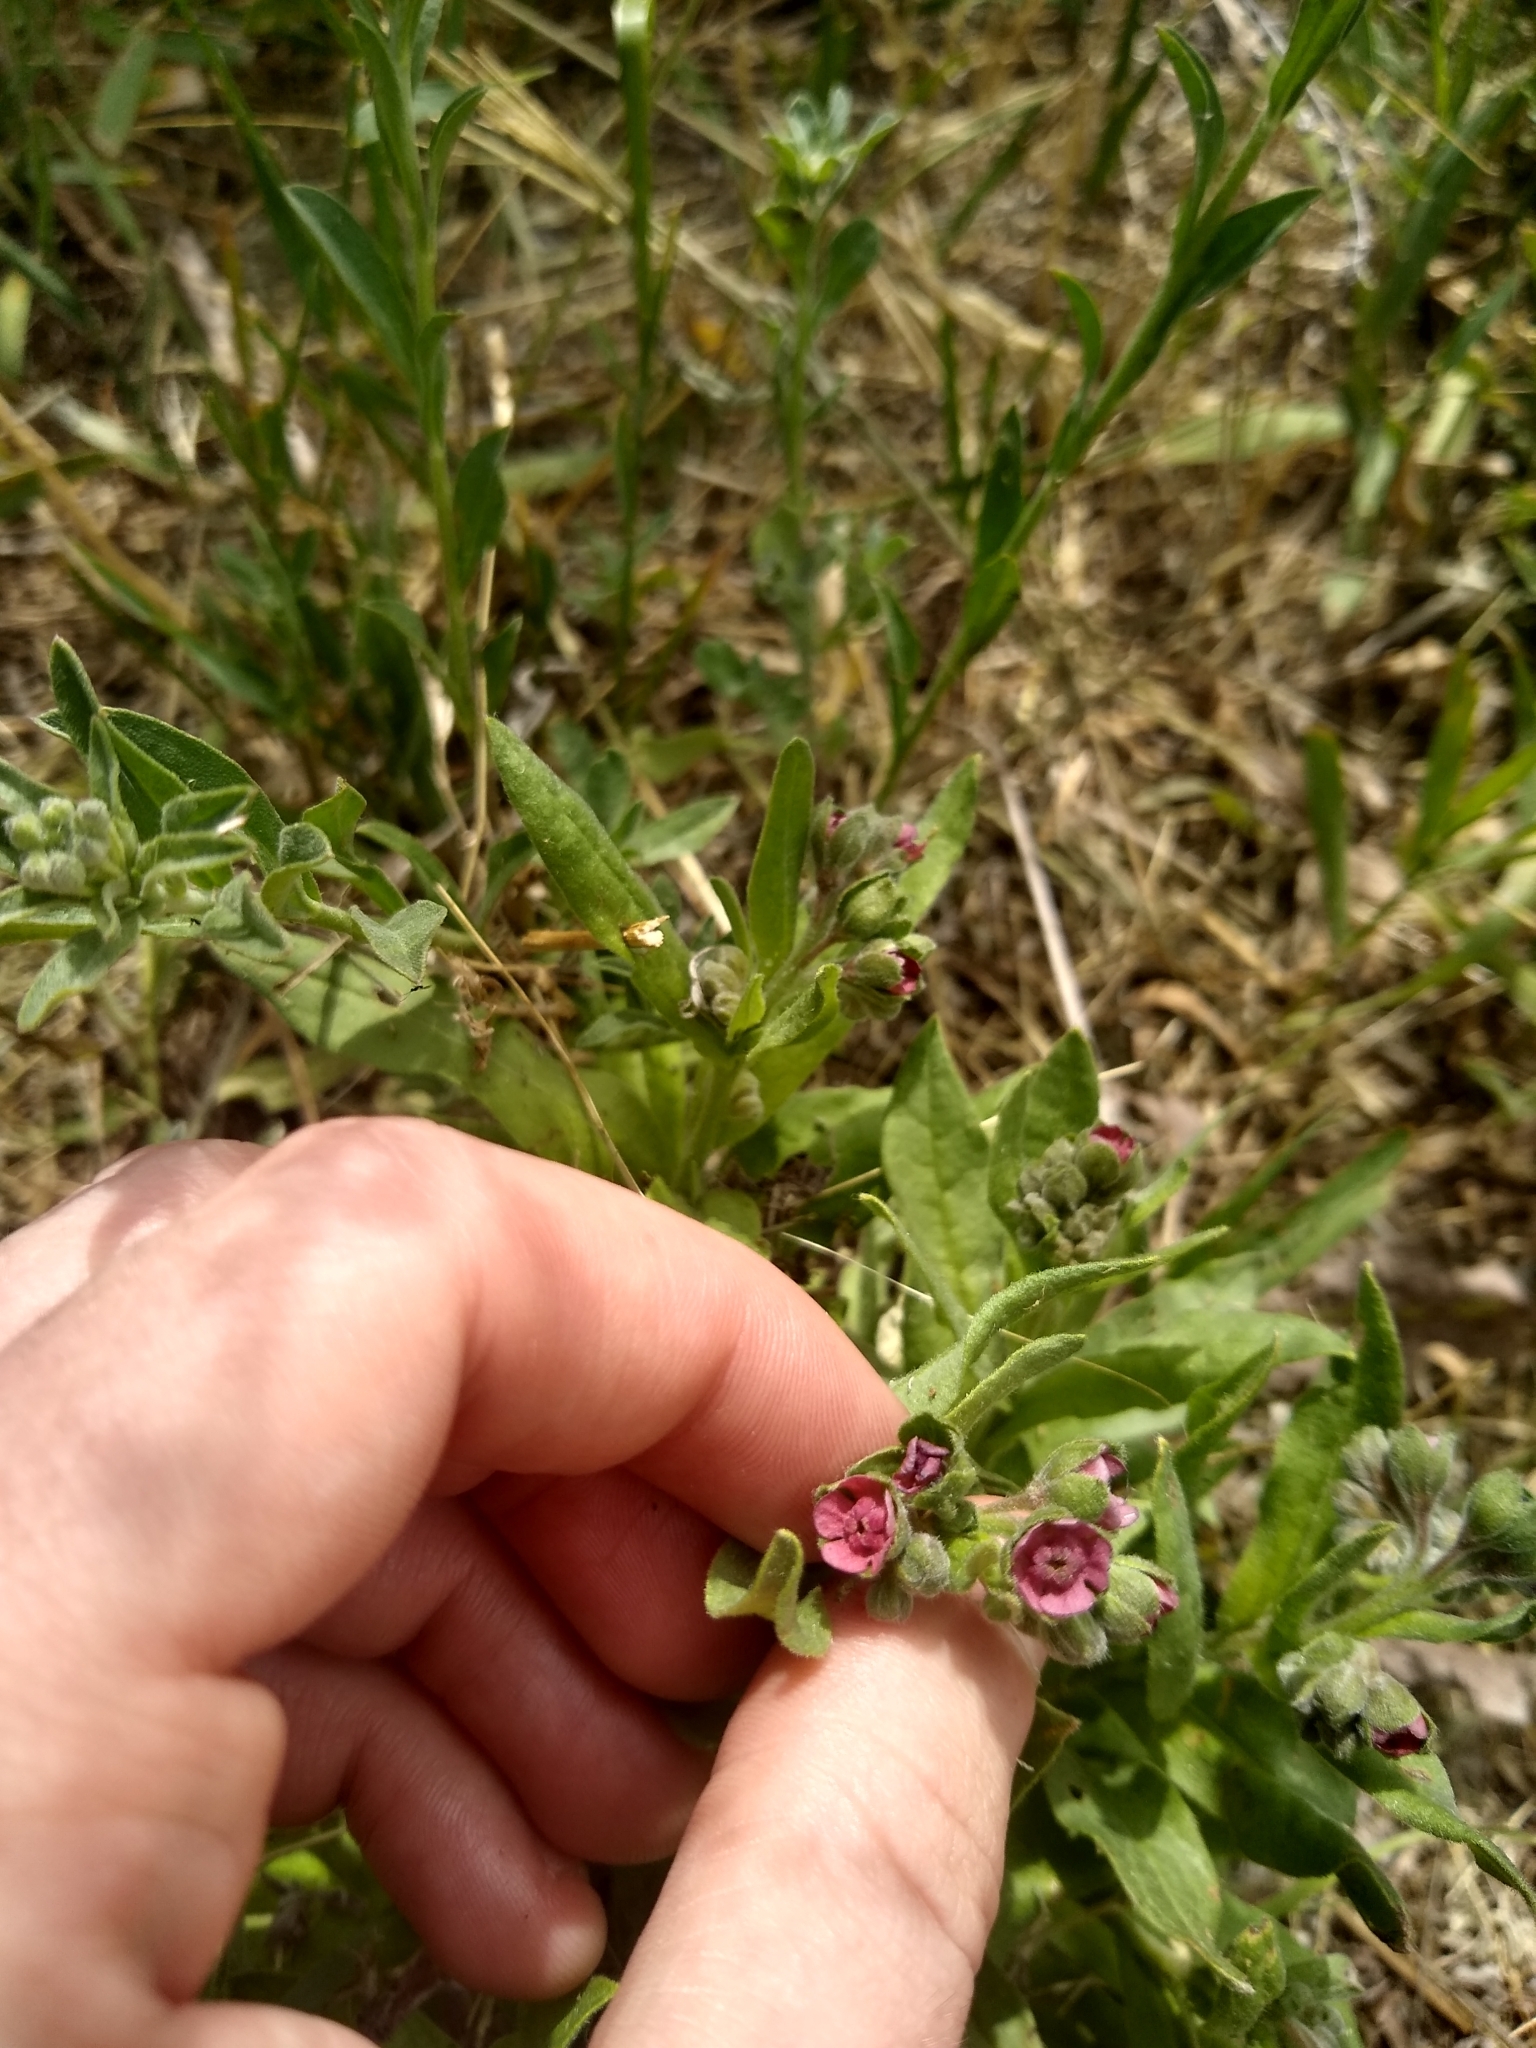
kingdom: Plantae
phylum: Tracheophyta
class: Magnoliopsida
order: Boraginales
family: Boraginaceae
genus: Cynoglossum
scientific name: Cynoglossum officinale
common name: Hound's-tongue
